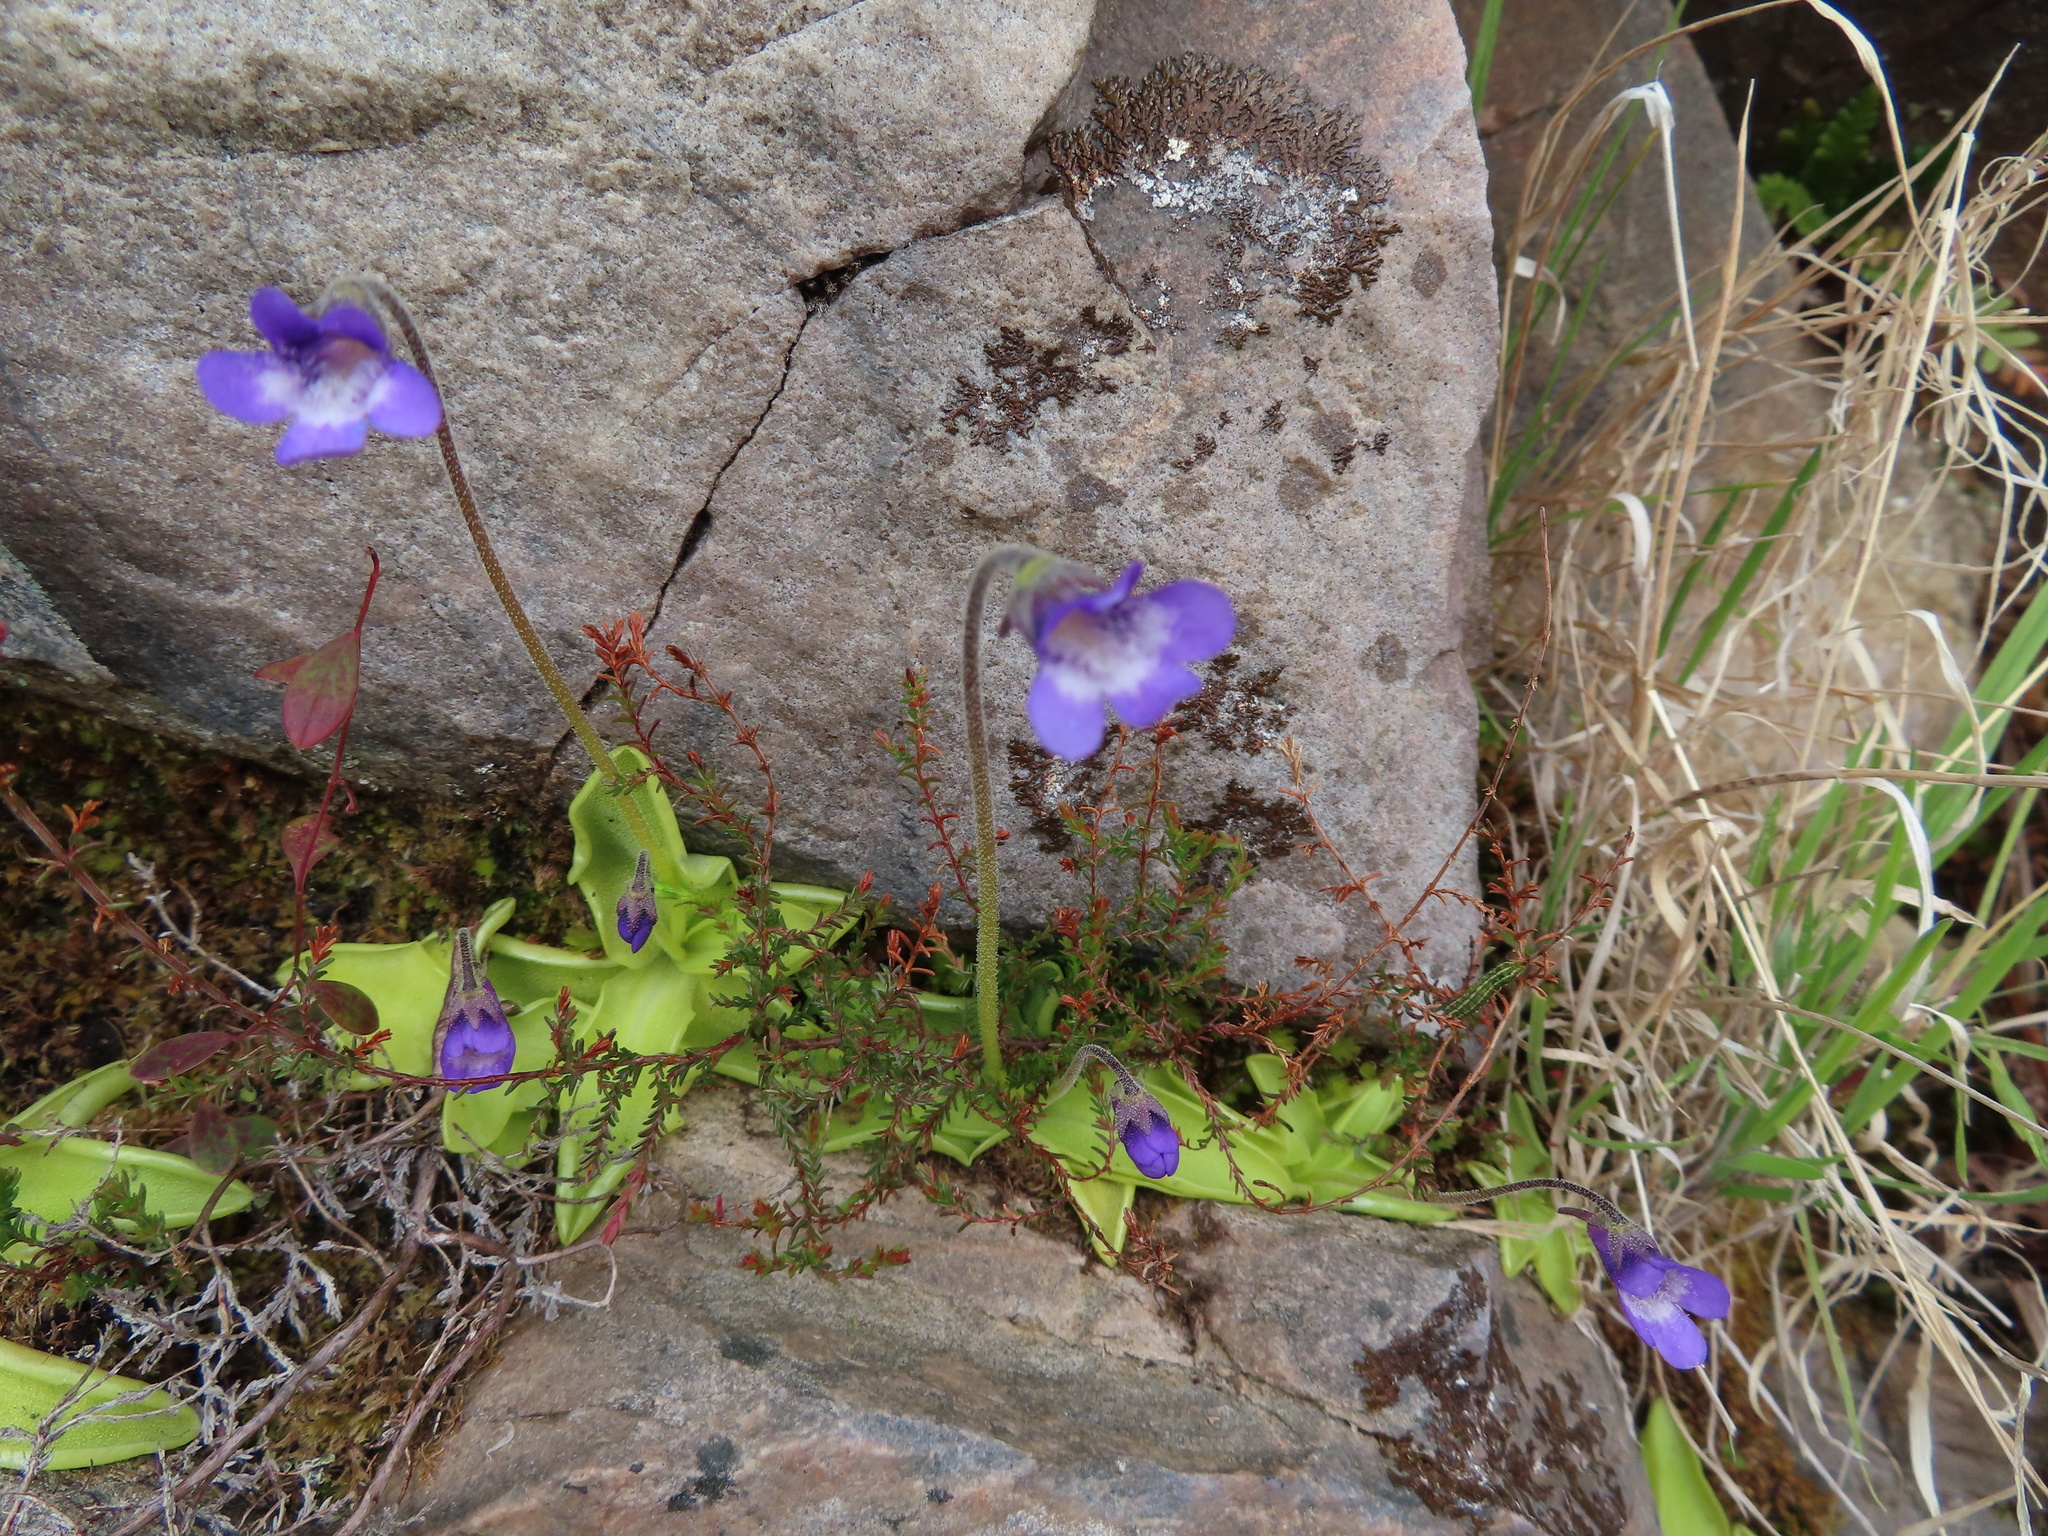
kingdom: Plantae
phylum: Tracheophyta
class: Magnoliopsida
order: Lamiales
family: Lentibulariaceae
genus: Pinguicula
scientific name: Pinguicula vulgaris
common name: Common butterwort
